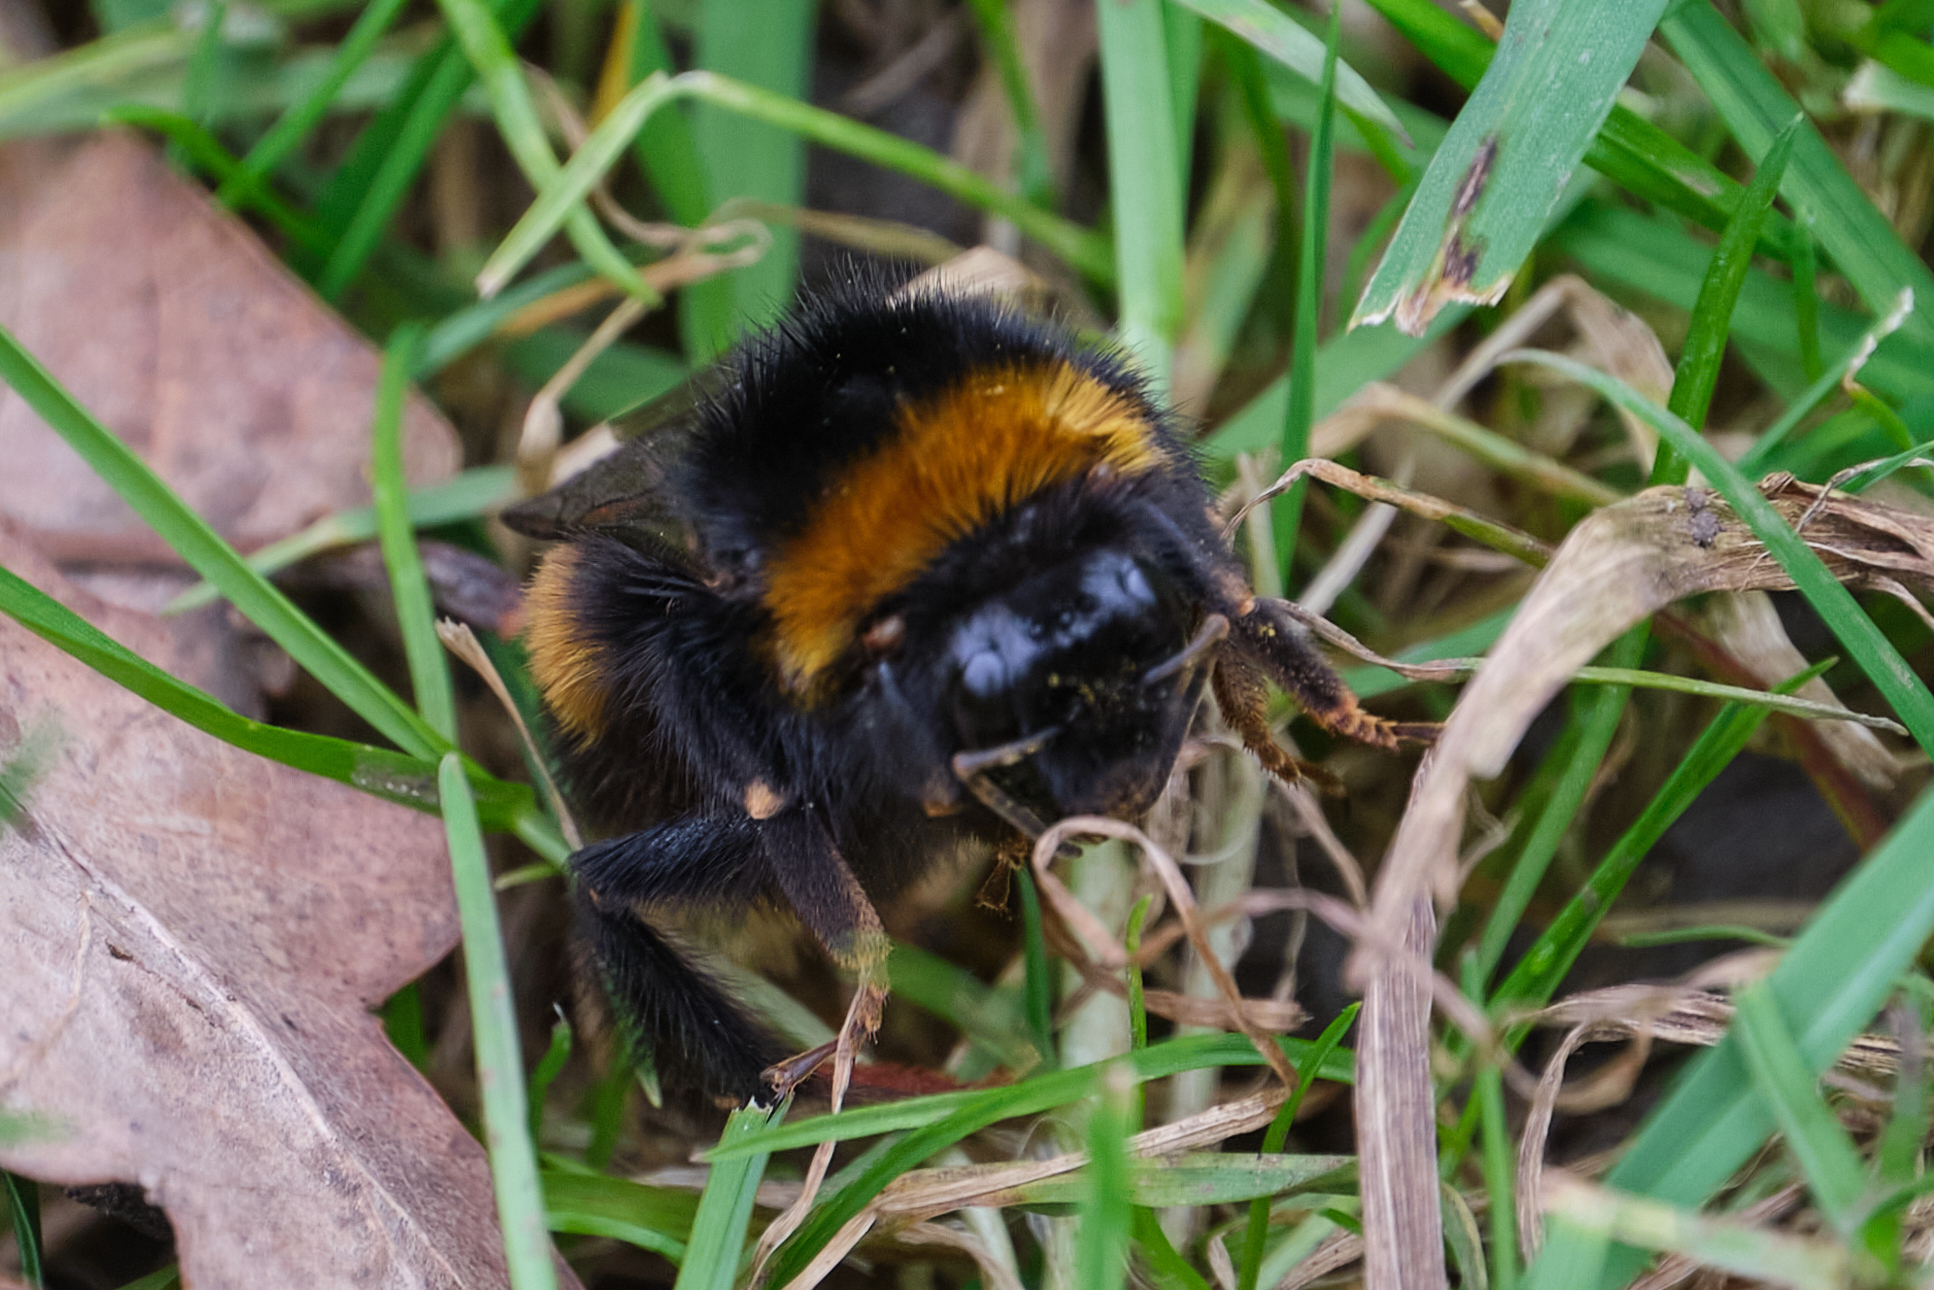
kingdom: Animalia
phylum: Arthropoda
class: Insecta
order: Hymenoptera
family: Apidae
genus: Bombus
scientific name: Bombus terrestris
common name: Buff-tailed bumblebee
